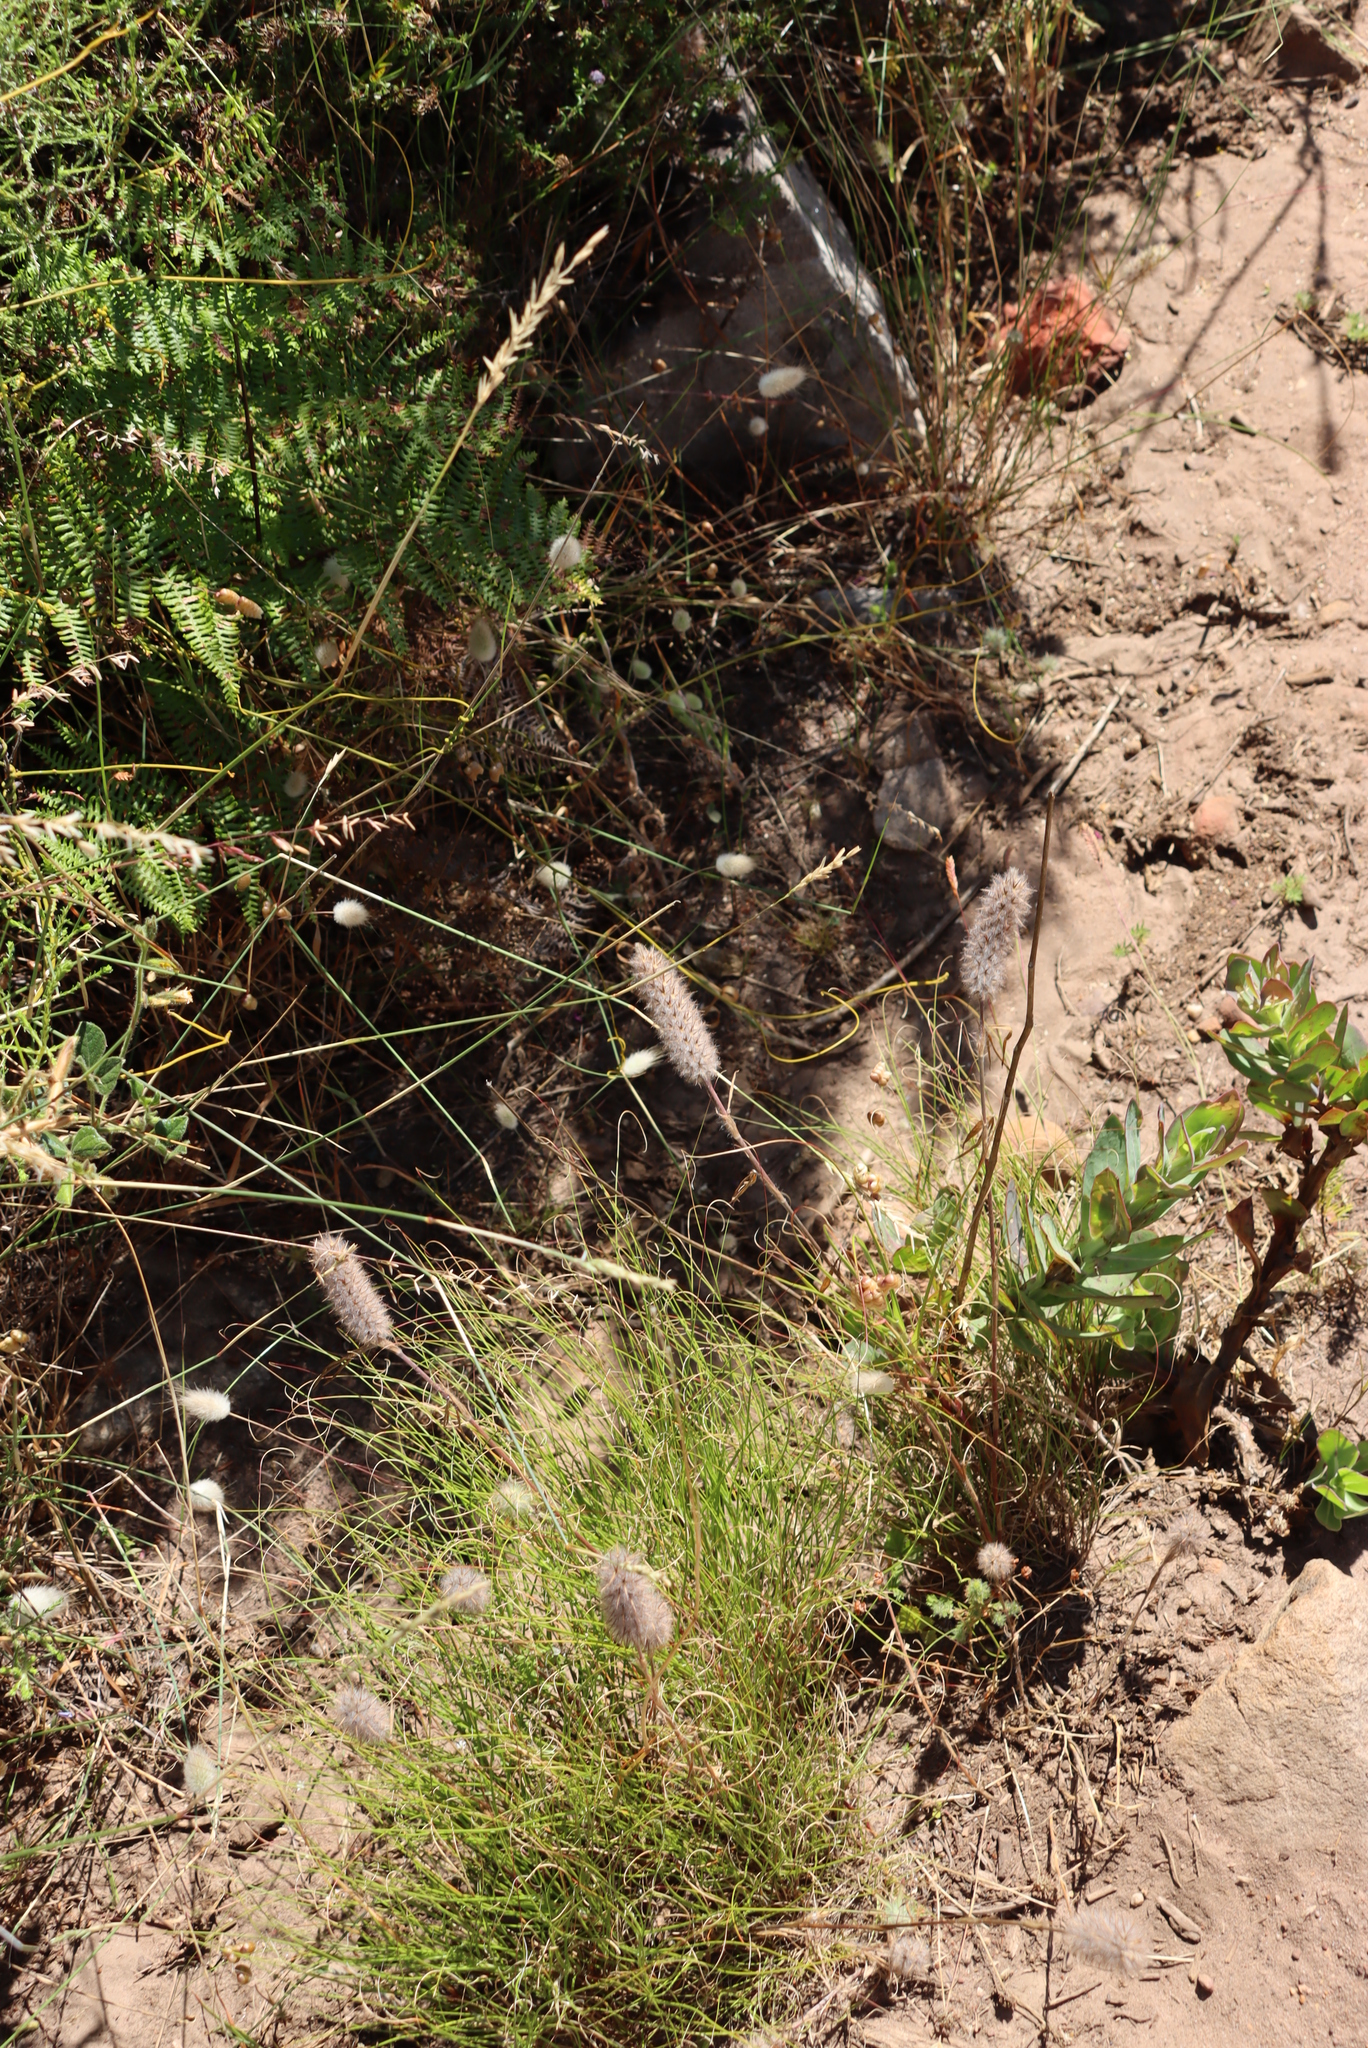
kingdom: Plantae
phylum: Tracheophyta
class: Magnoliopsida
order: Fabales
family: Fabaceae
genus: Trifolium
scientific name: Trifolium angustifolium
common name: Narrow clover
